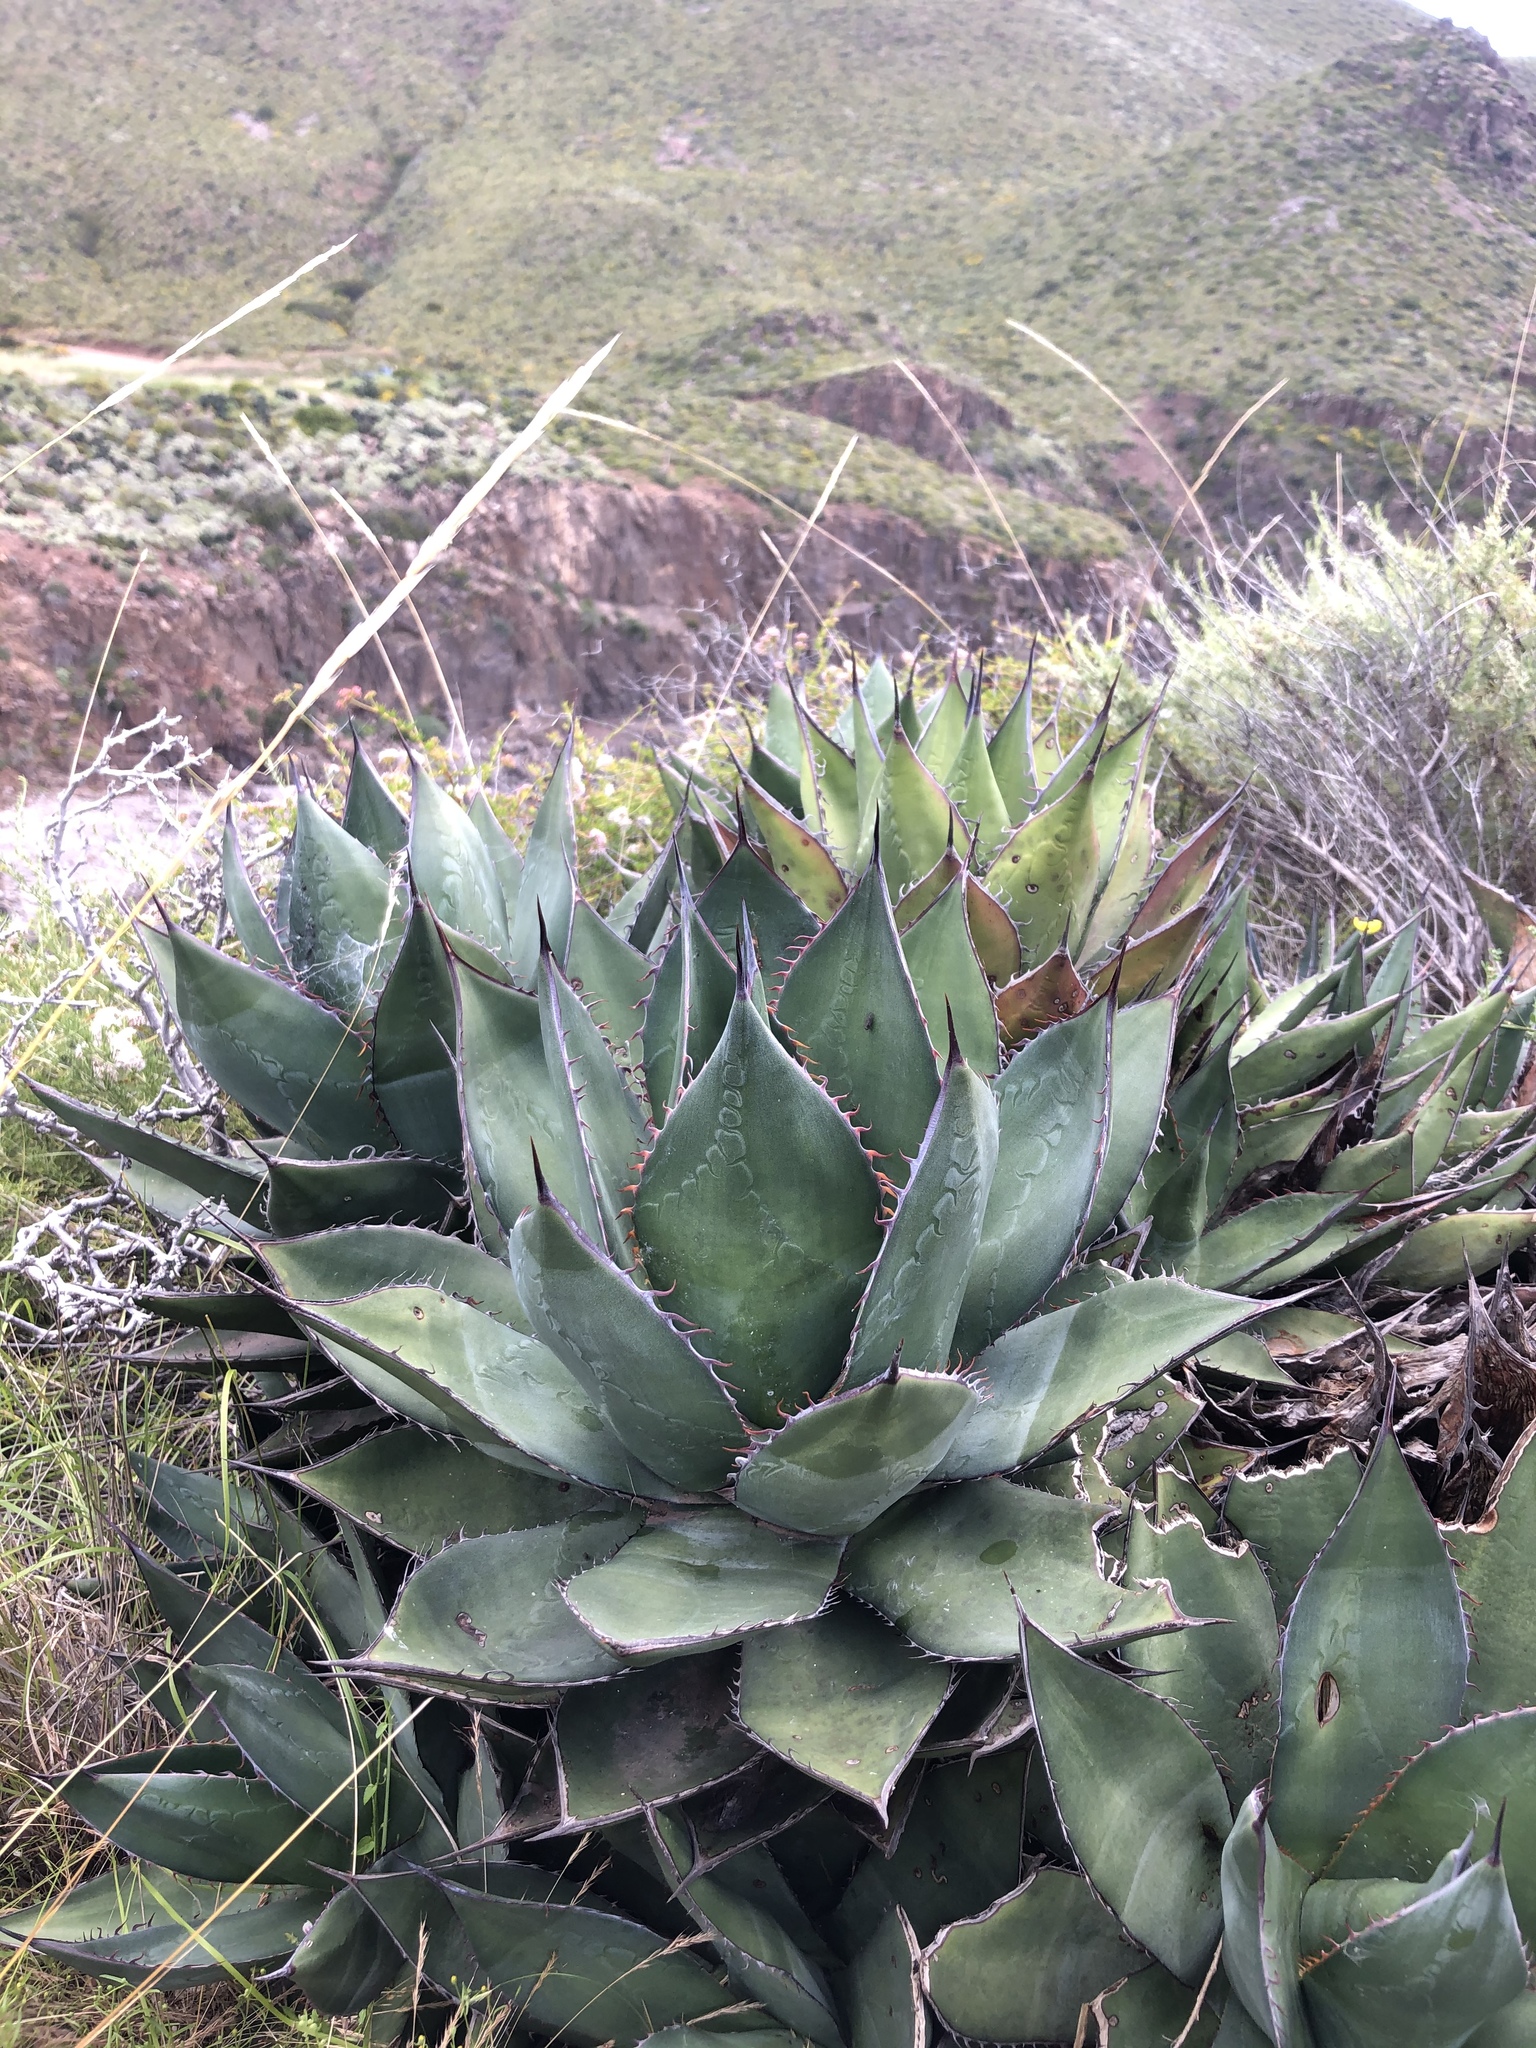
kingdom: Plantae
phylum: Tracheophyta
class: Liliopsida
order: Asparagales
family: Asparagaceae
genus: Agave
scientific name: Agave shawii
